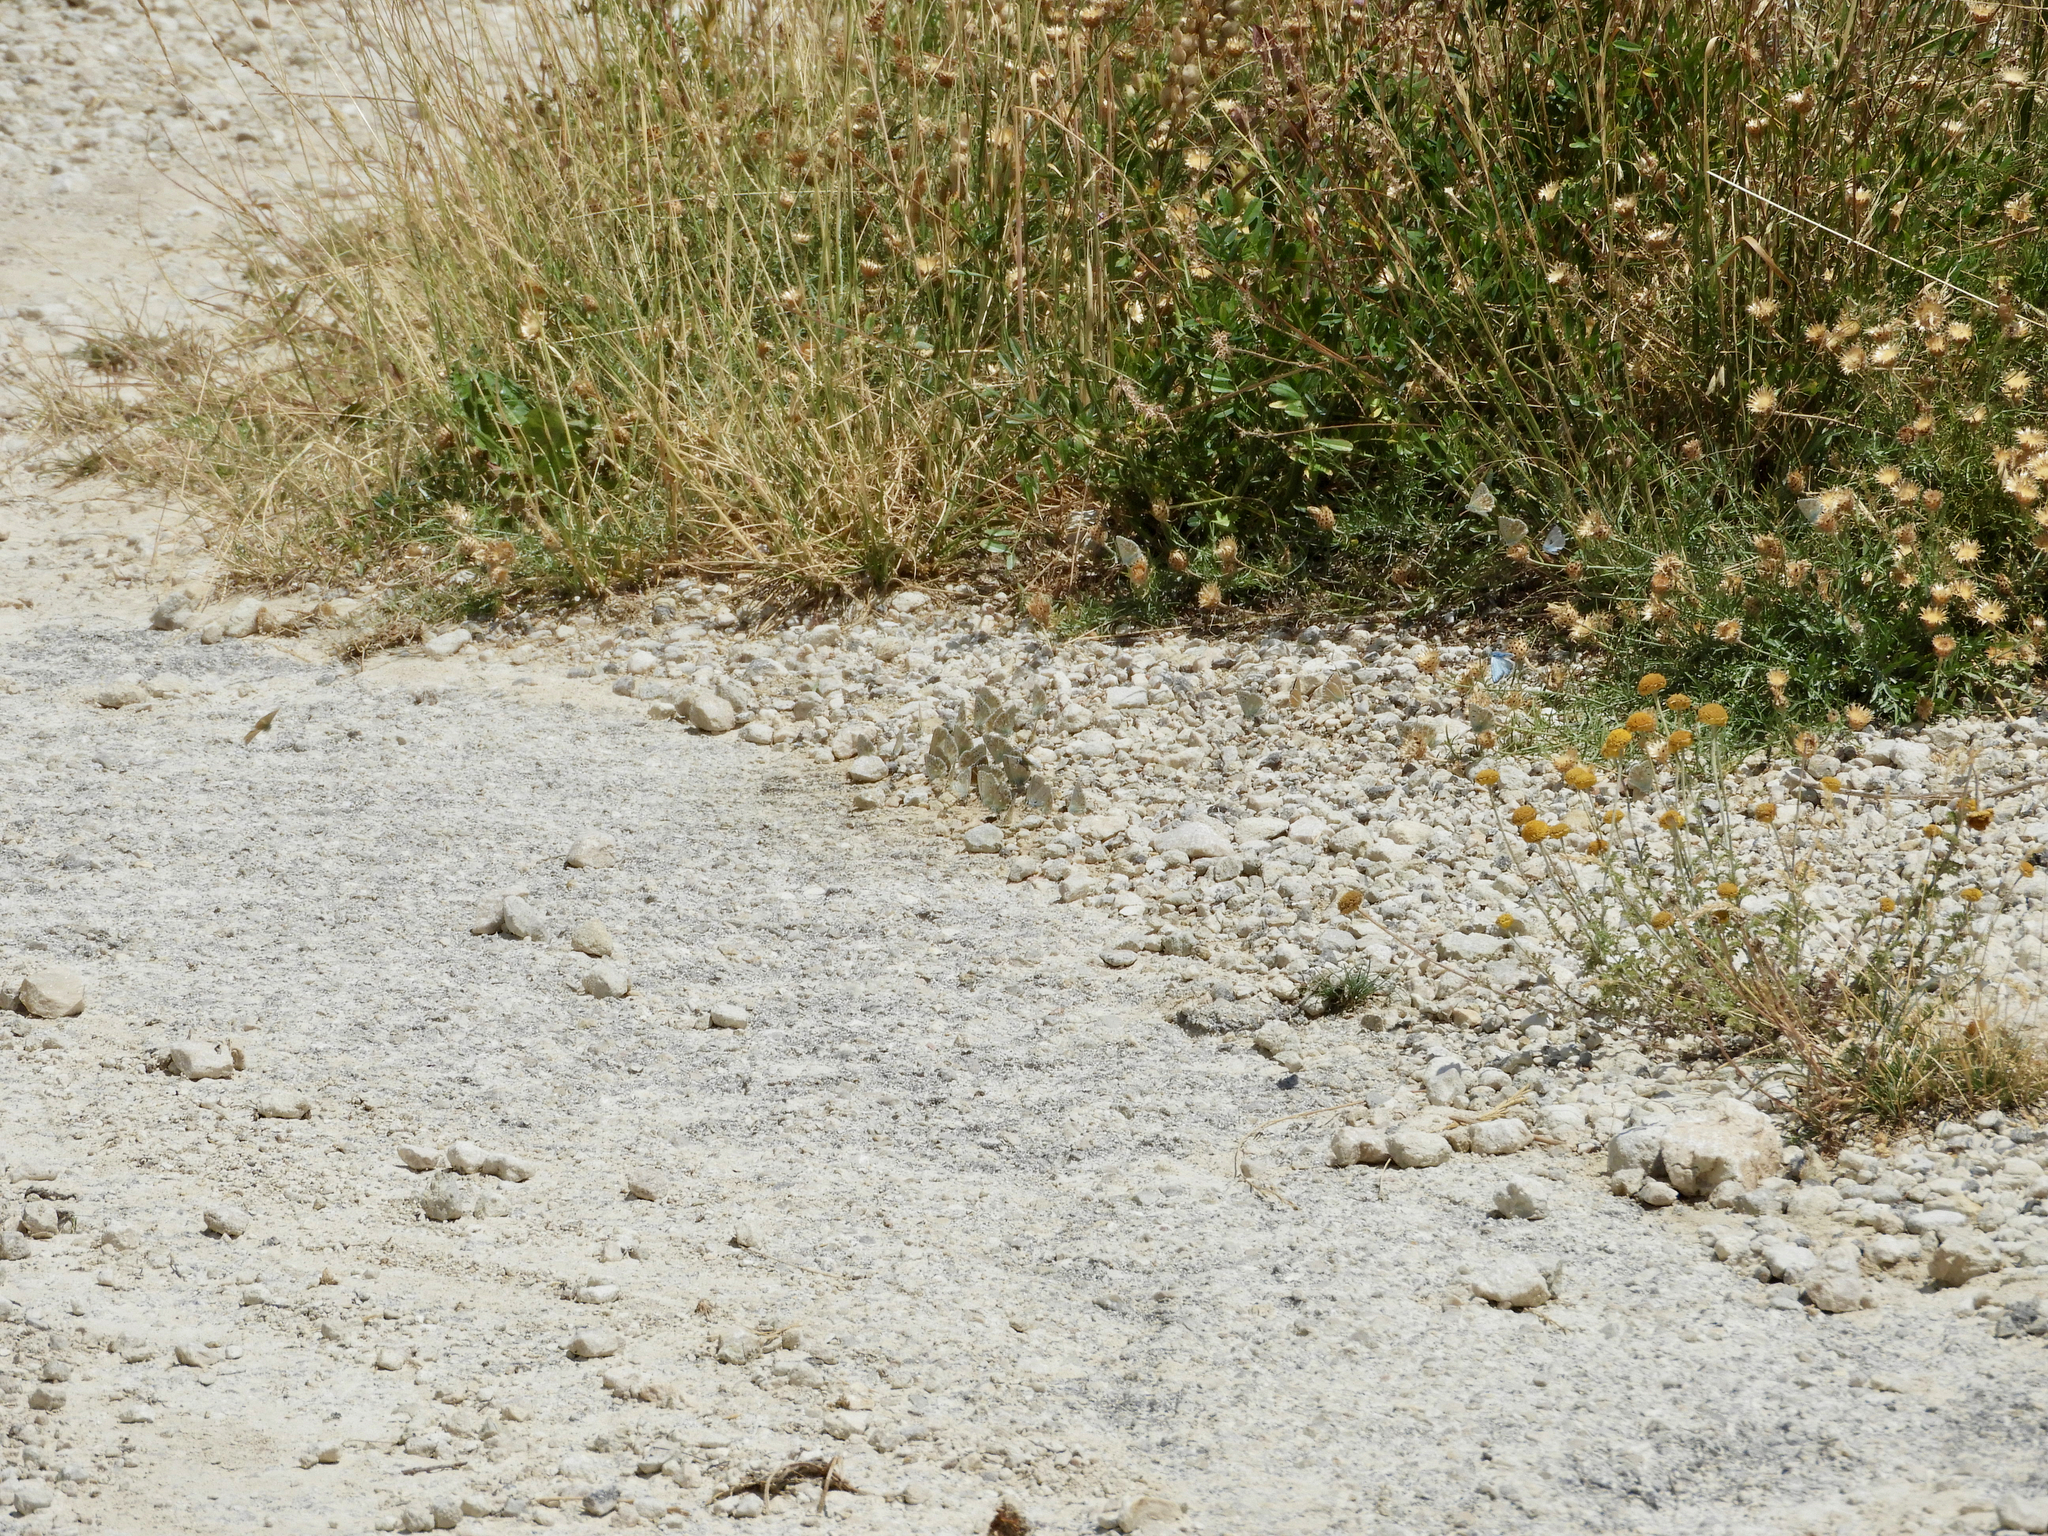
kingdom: Animalia
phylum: Arthropoda
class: Insecta
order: Lepidoptera
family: Lycaenidae
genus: Lysandra
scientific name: Lysandra coridon
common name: Chalkhill blue
